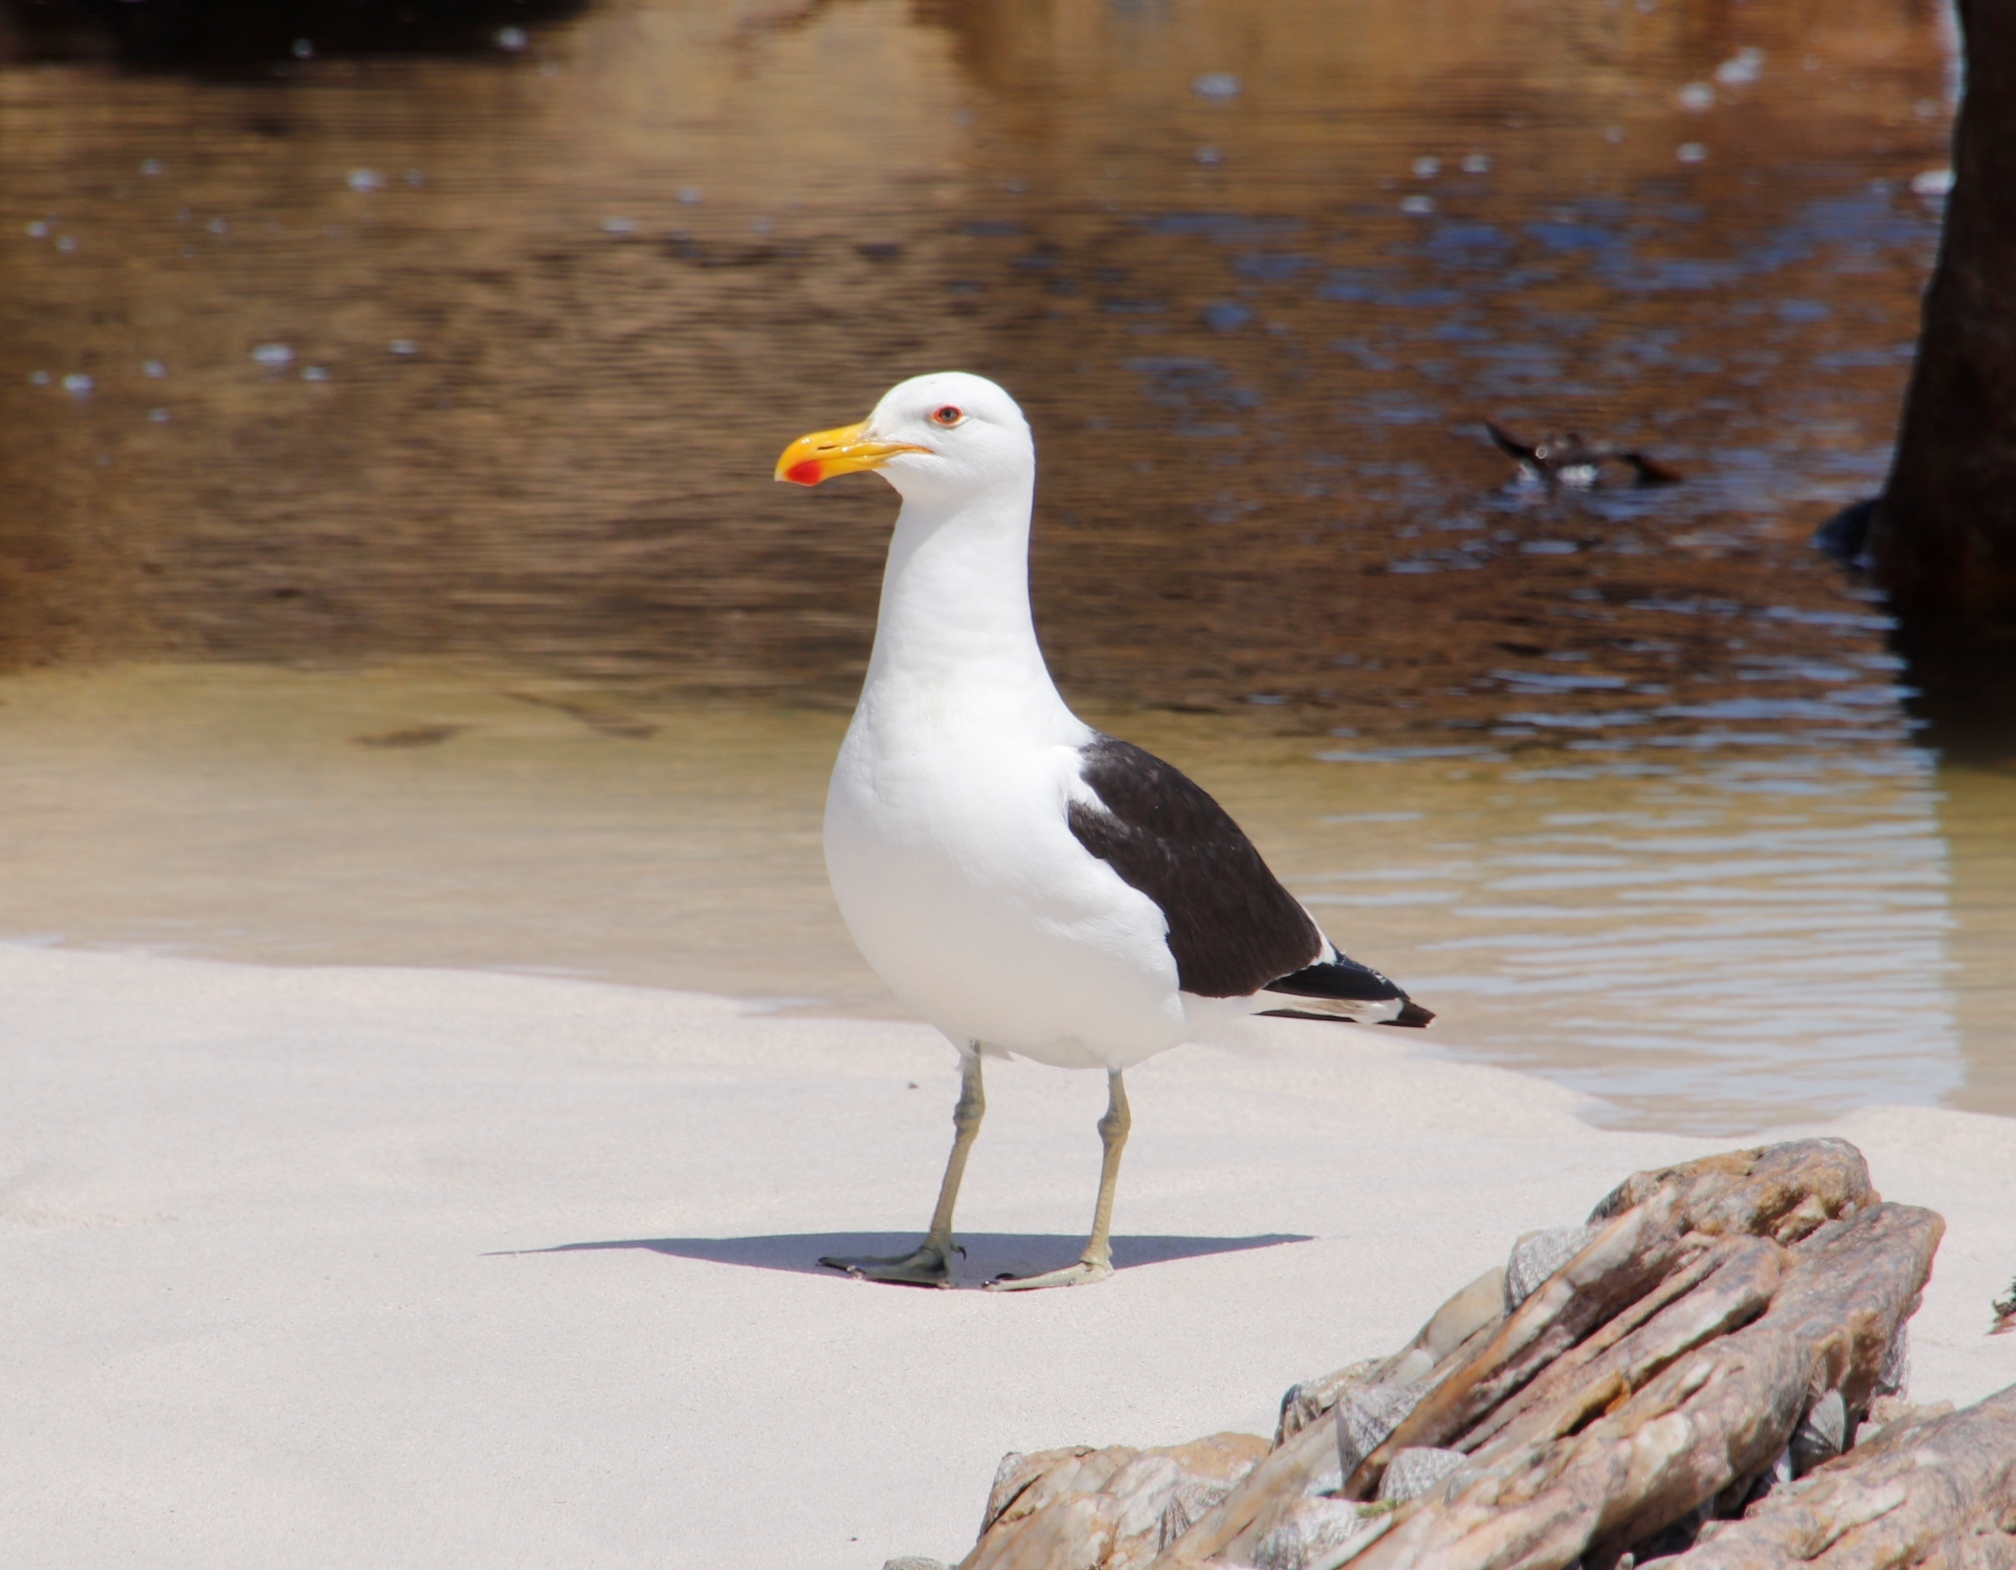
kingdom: Animalia
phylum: Chordata
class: Aves
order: Charadriiformes
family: Laridae
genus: Larus
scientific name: Larus dominicanus
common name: Kelp gull
